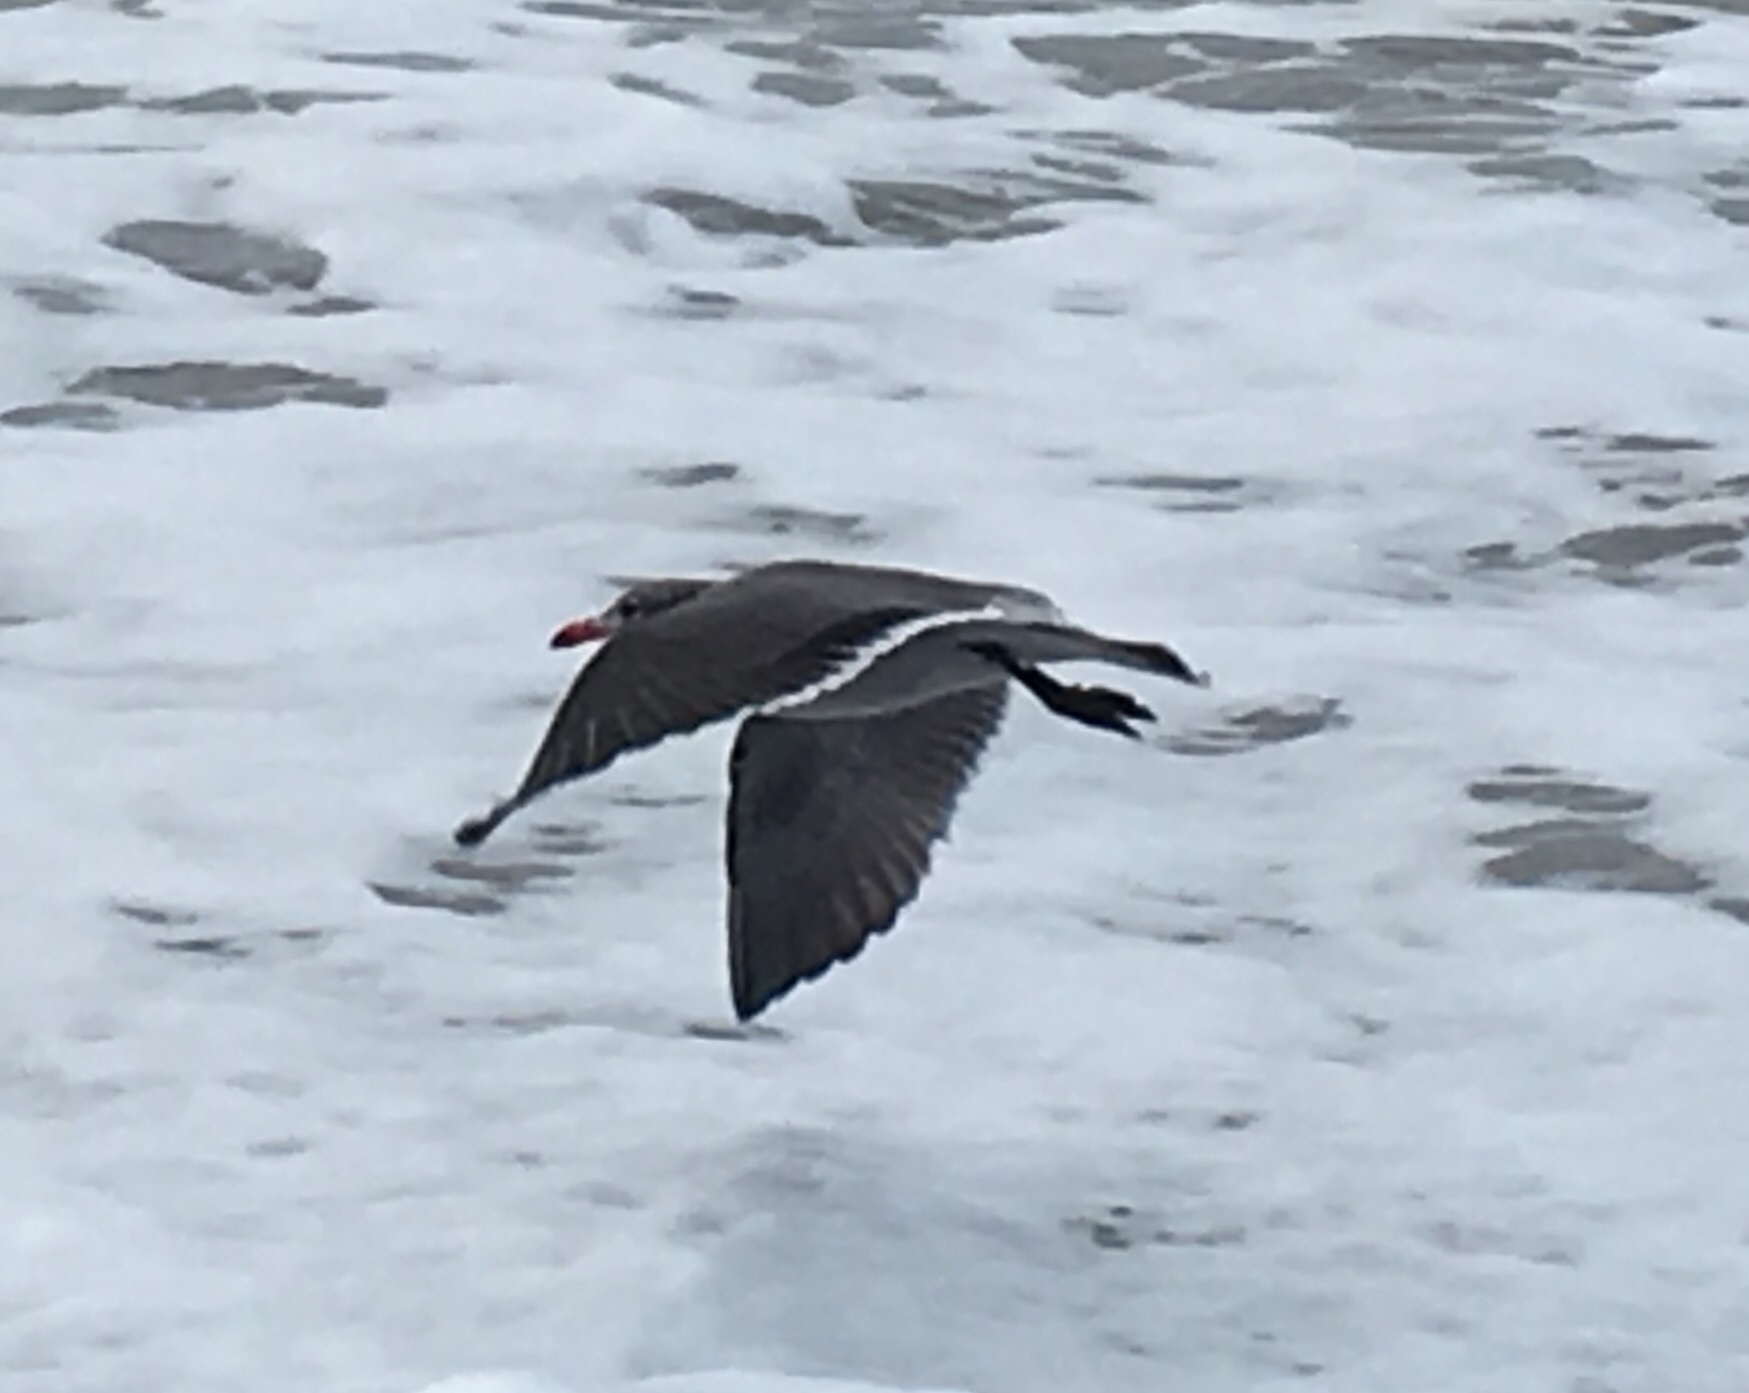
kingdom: Animalia
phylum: Chordata
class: Aves
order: Charadriiformes
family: Laridae
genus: Larus
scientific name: Larus heermanni
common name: Heermann's gull
